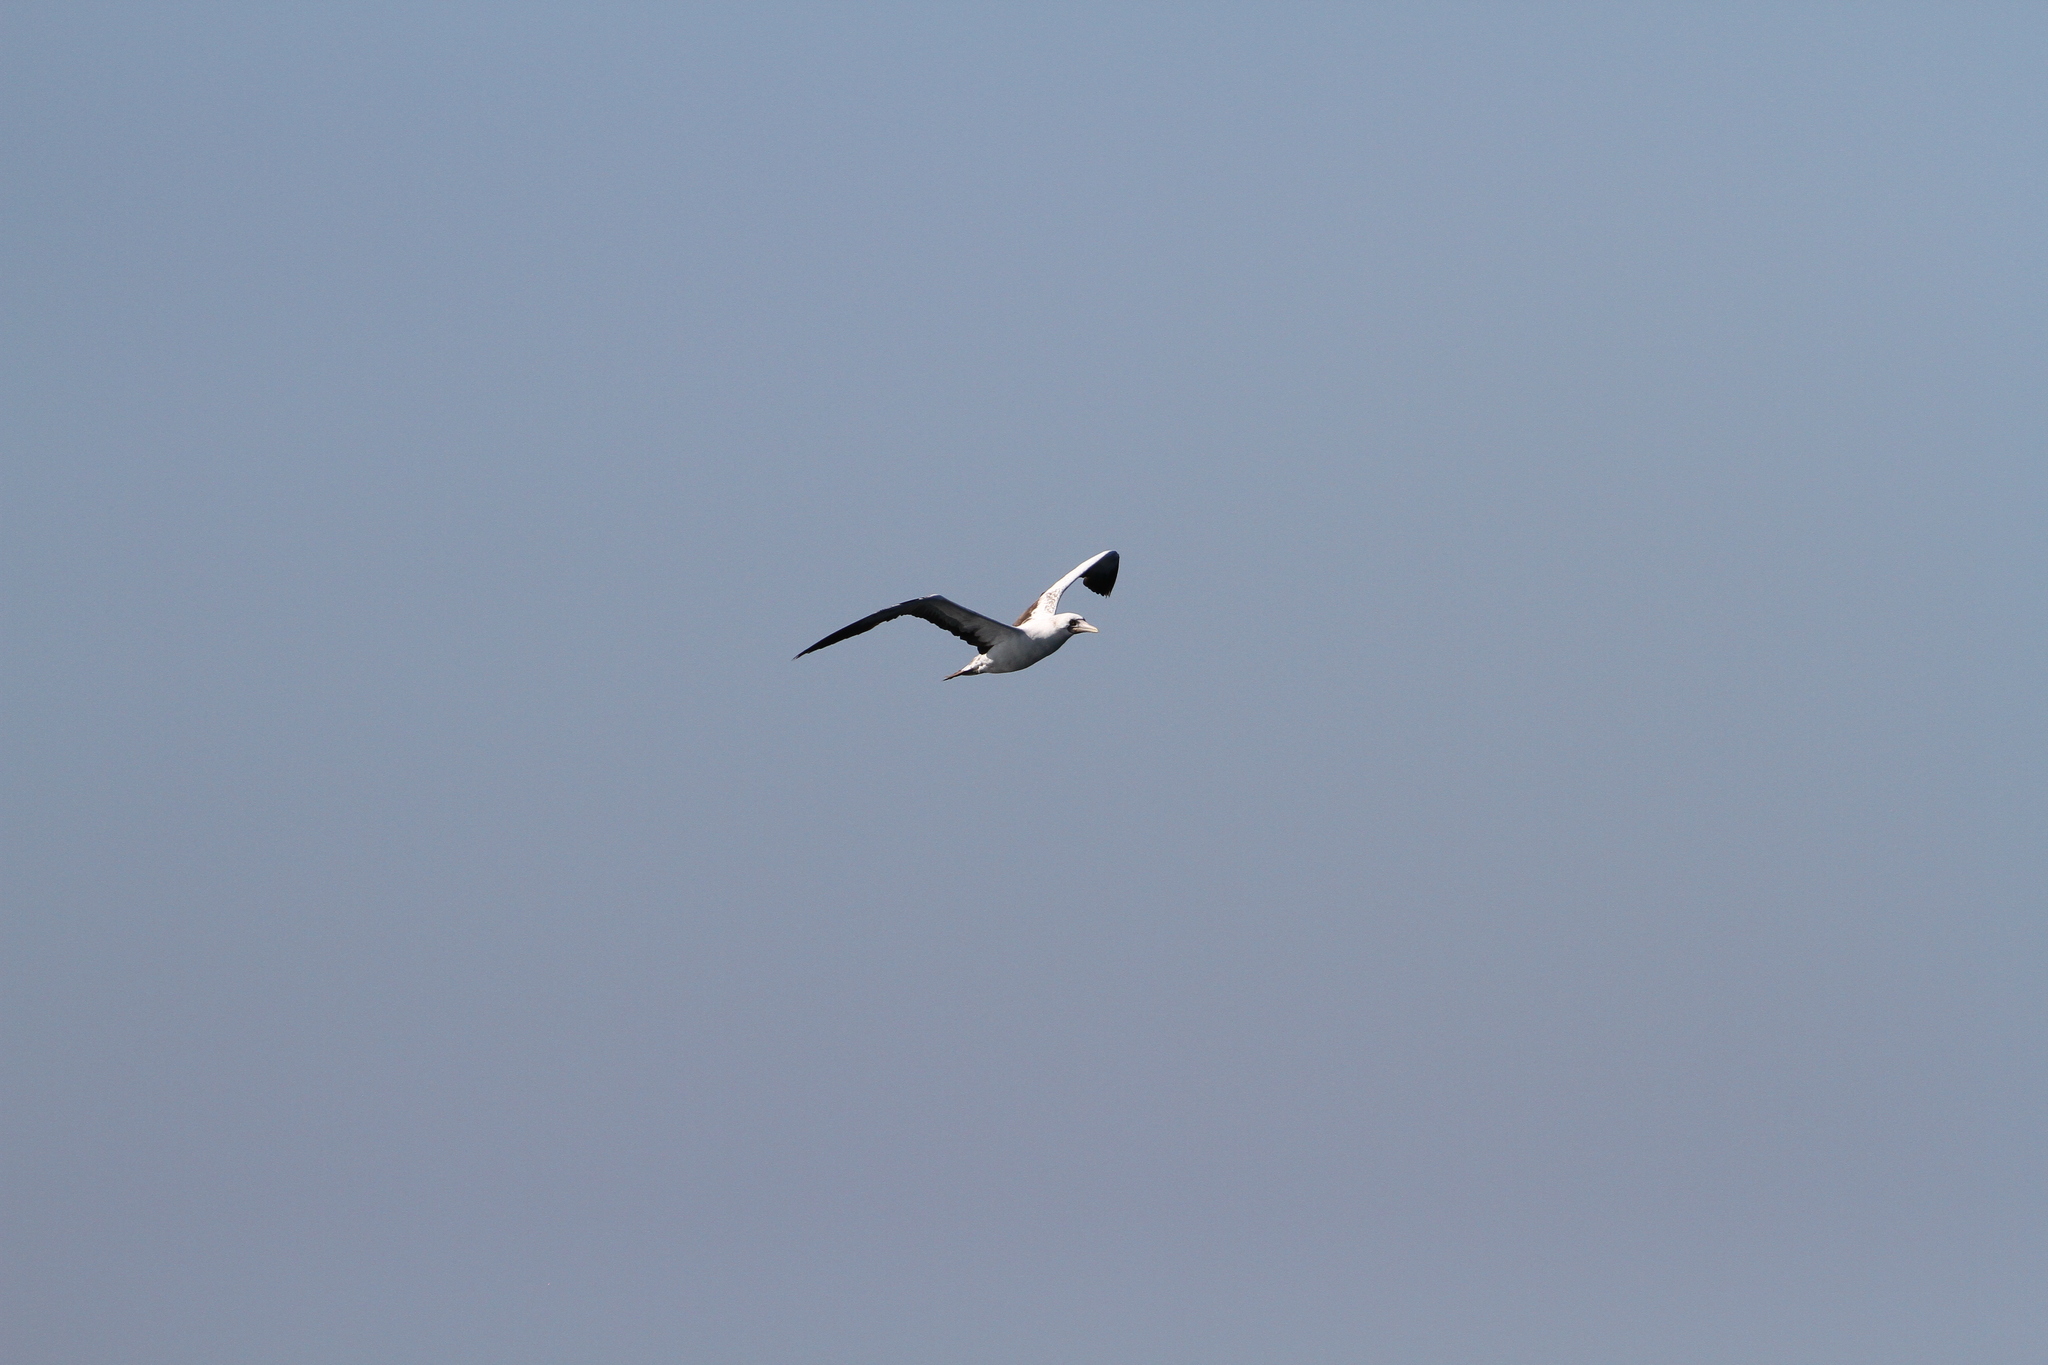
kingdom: Animalia
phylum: Chordata
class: Aves
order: Suliformes
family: Sulidae
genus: Sula
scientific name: Sula granti
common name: Nazca booby
